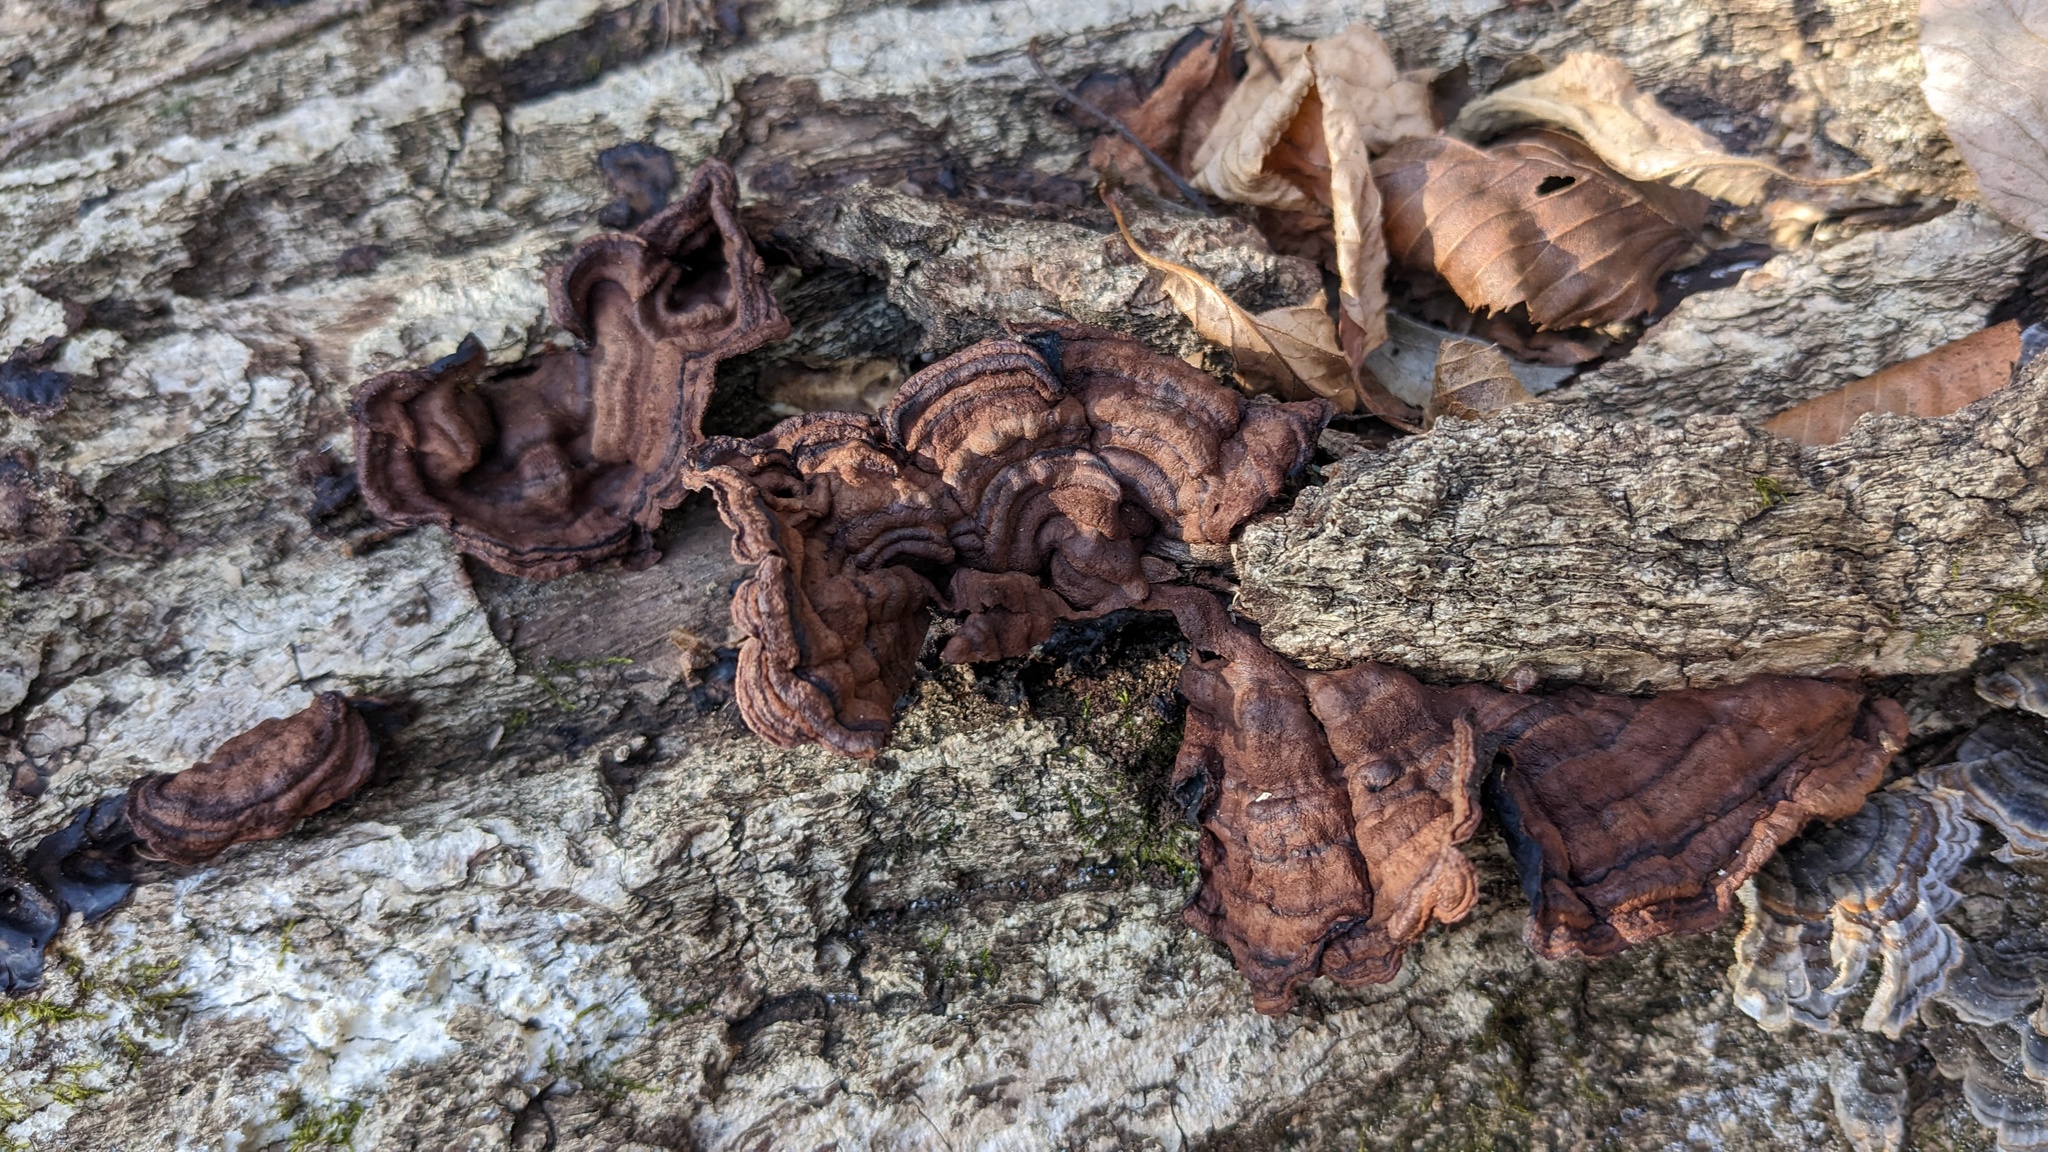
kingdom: Fungi
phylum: Basidiomycota
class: Agaricomycetes
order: Corticiales
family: Punctulariaceae
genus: Punctularia
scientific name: Punctularia strigosozonata
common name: White-rot fungus
